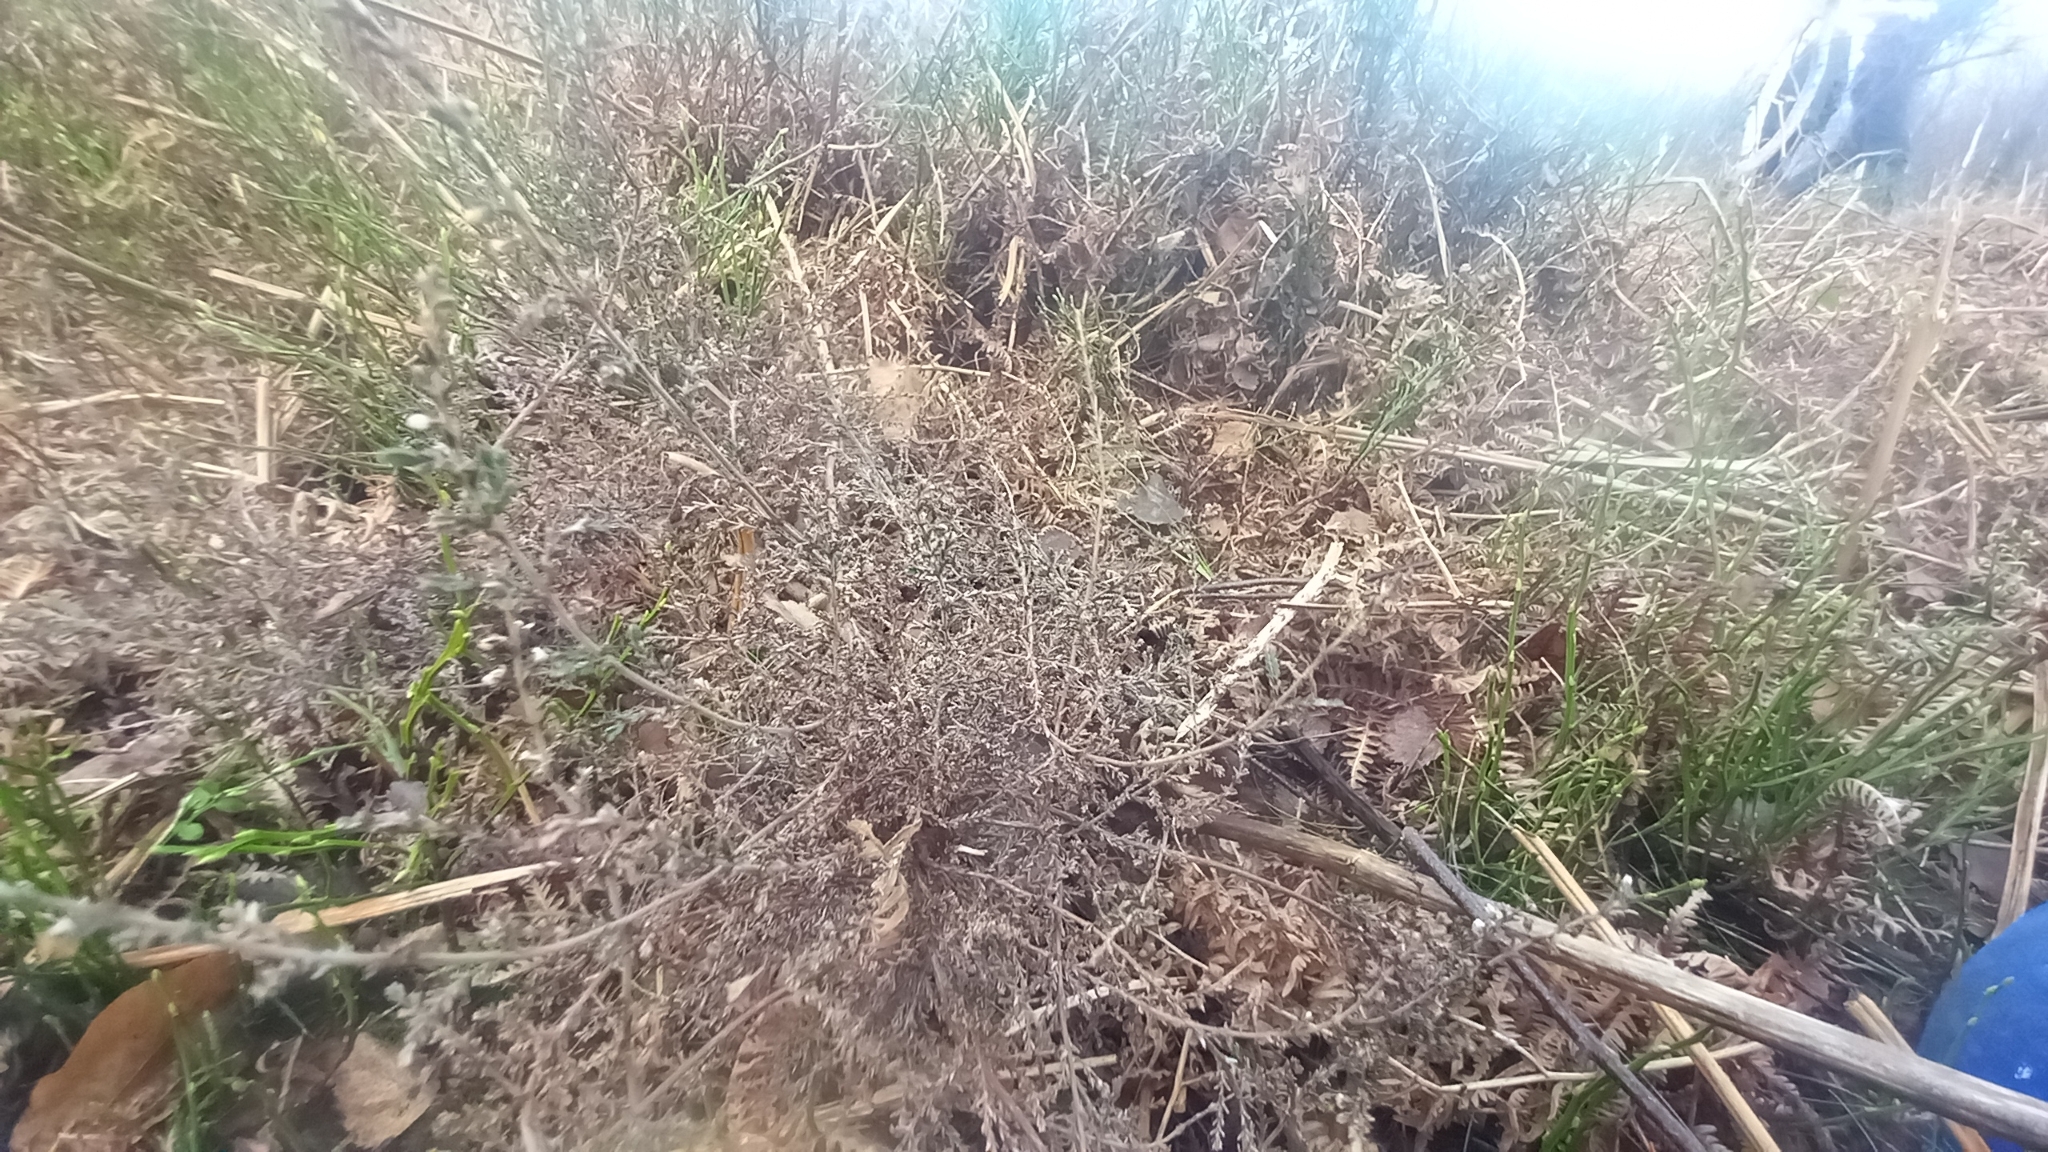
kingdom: Plantae
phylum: Tracheophyta
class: Magnoliopsida
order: Ericales
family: Ericaceae
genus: Calluna
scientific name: Calluna vulgaris
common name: Heather
